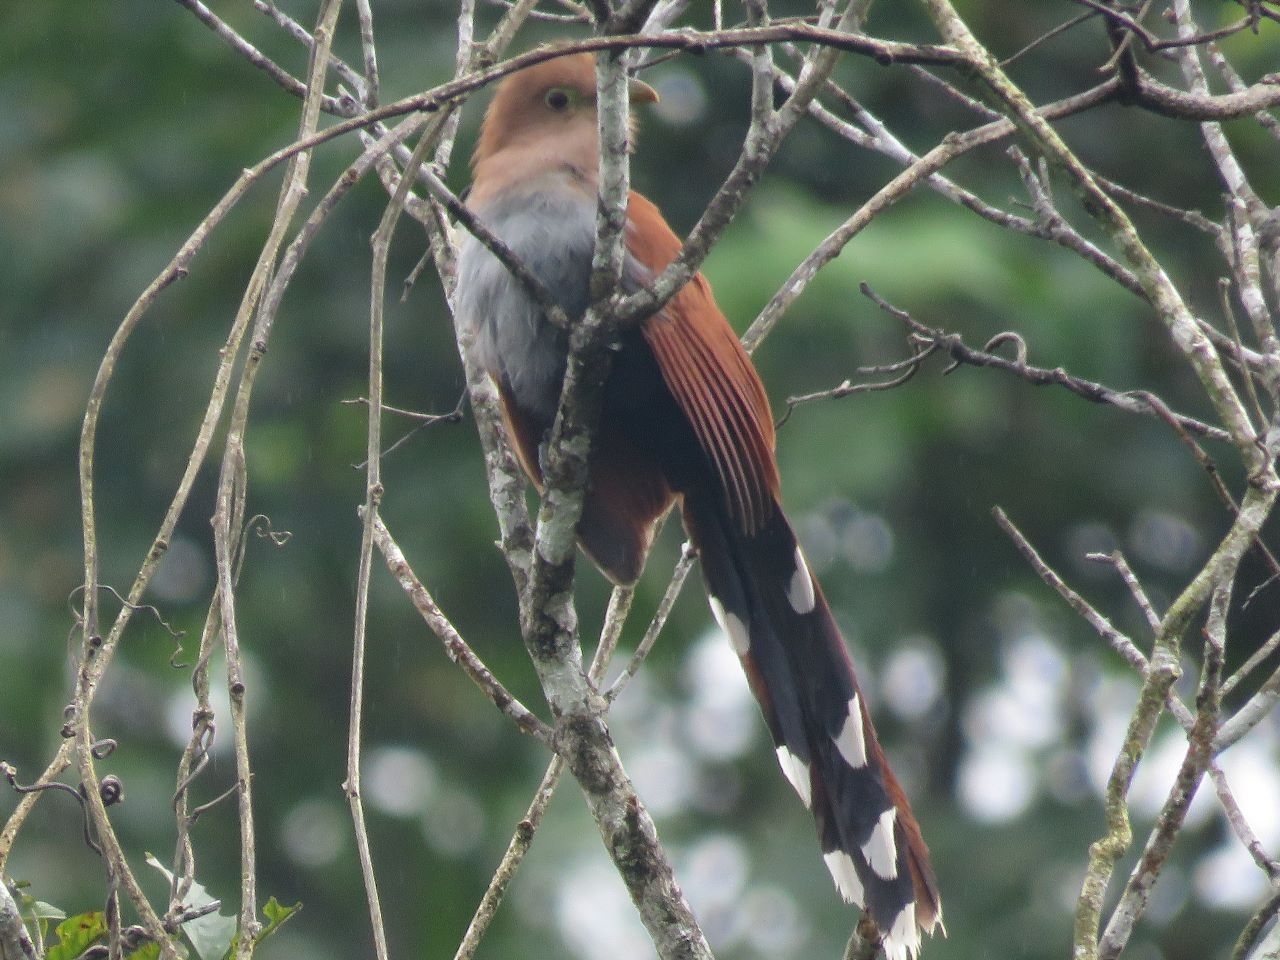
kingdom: Animalia
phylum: Chordata
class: Aves
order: Cuculiformes
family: Cuculidae
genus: Piaya
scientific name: Piaya cayana
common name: Squirrel cuckoo
